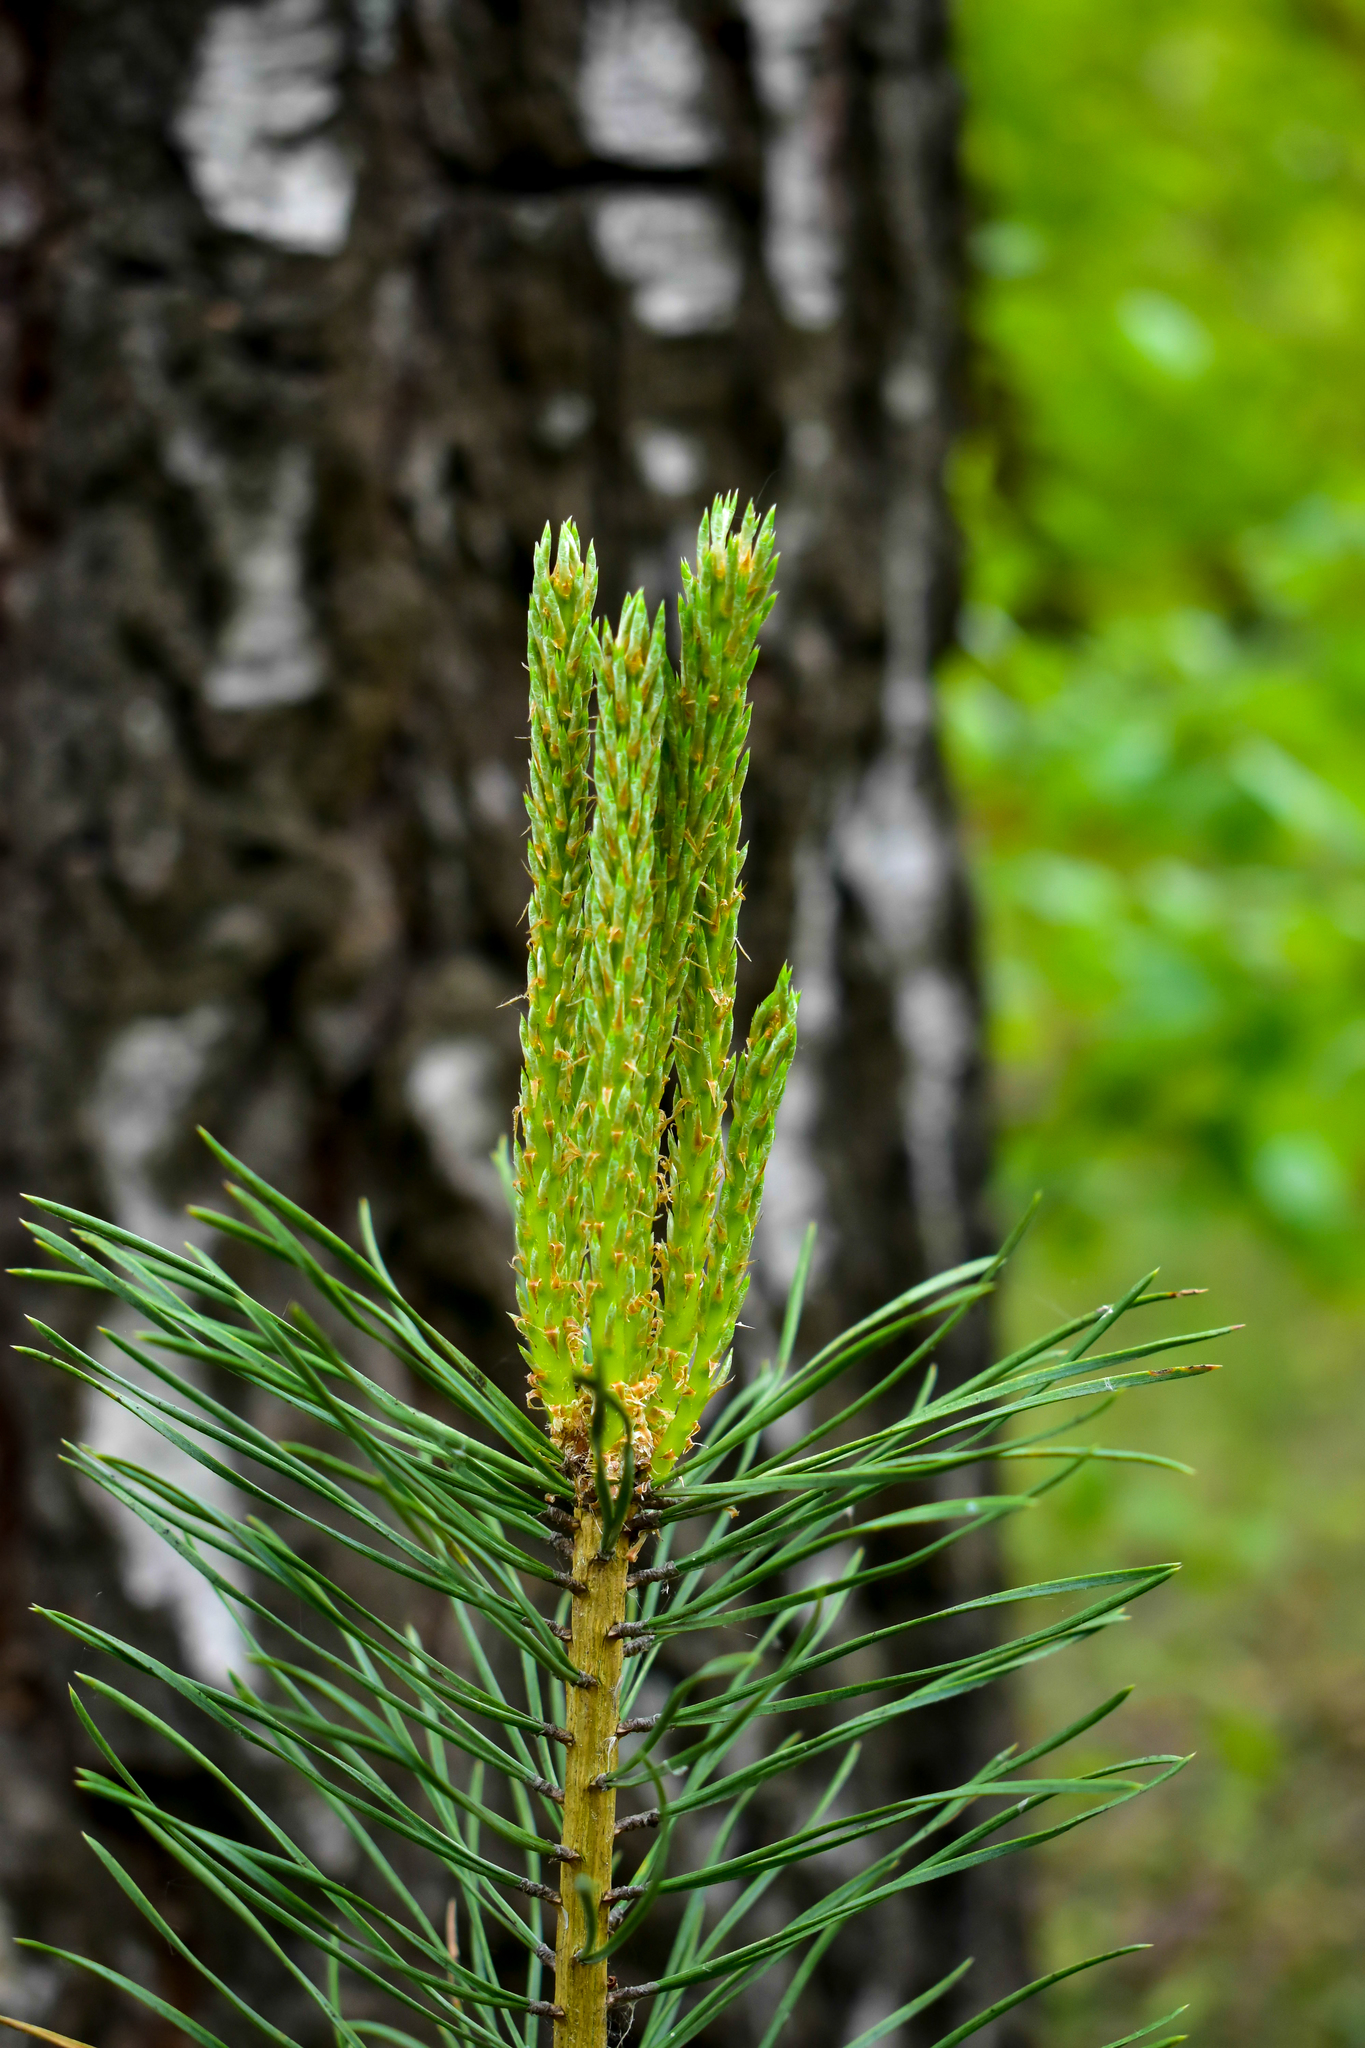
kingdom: Plantae
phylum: Tracheophyta
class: Pinopsida
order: Pinales
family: Pinaceae
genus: Pinus
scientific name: Pinus sylvestris
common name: Scots pine
